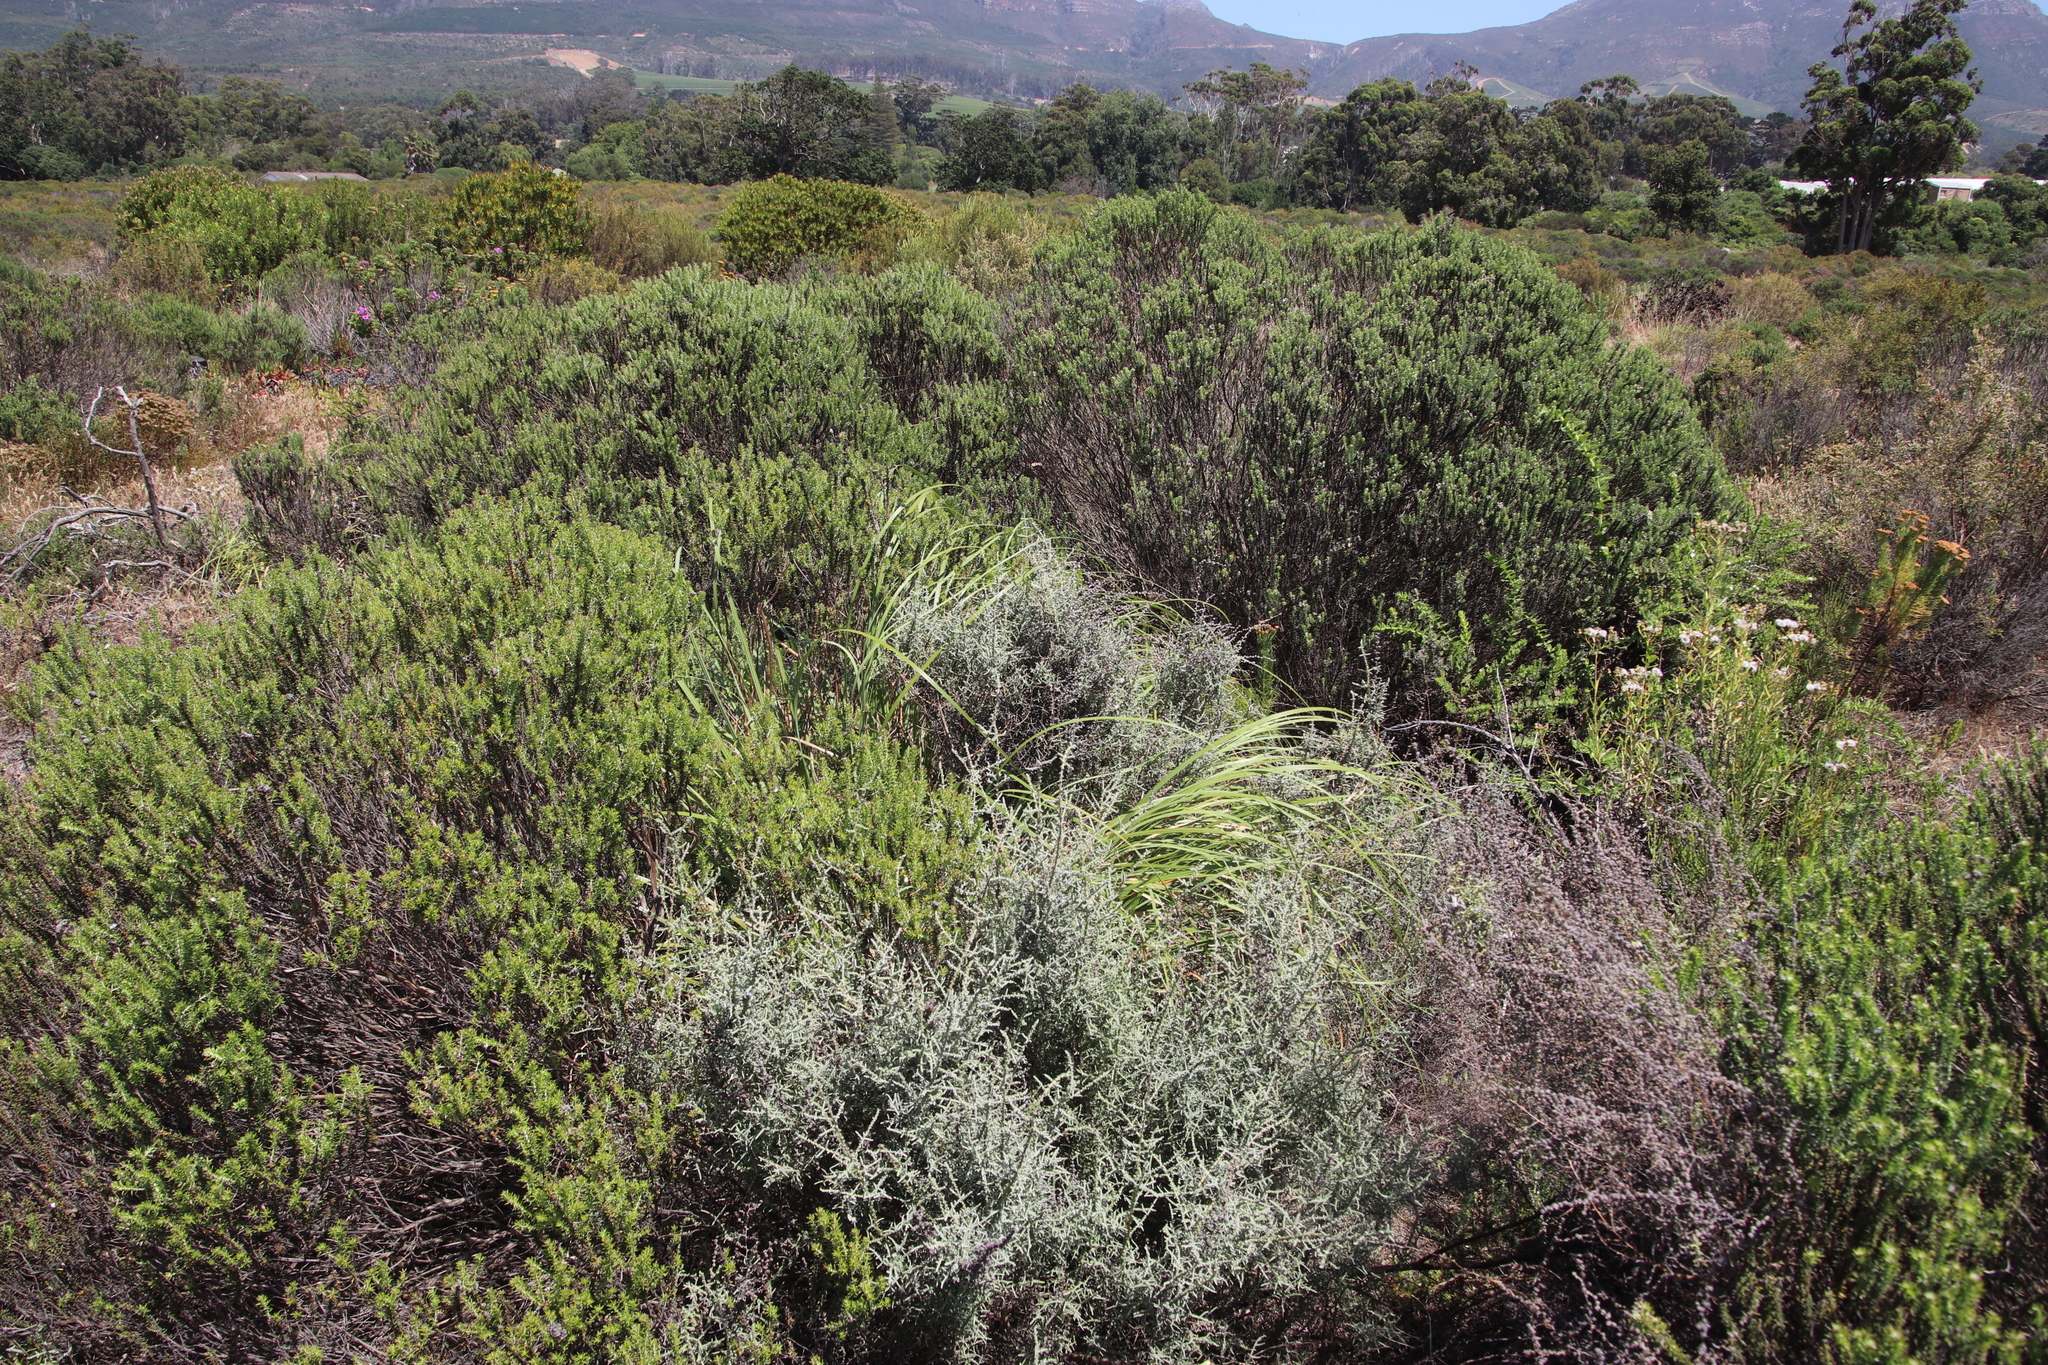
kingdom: Plantae
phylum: Tracheophyta
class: Liliopsida
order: Poales
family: Poaceae
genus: Cortaderia
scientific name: Cortaderia selloana
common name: Uruguayan pampas grass
